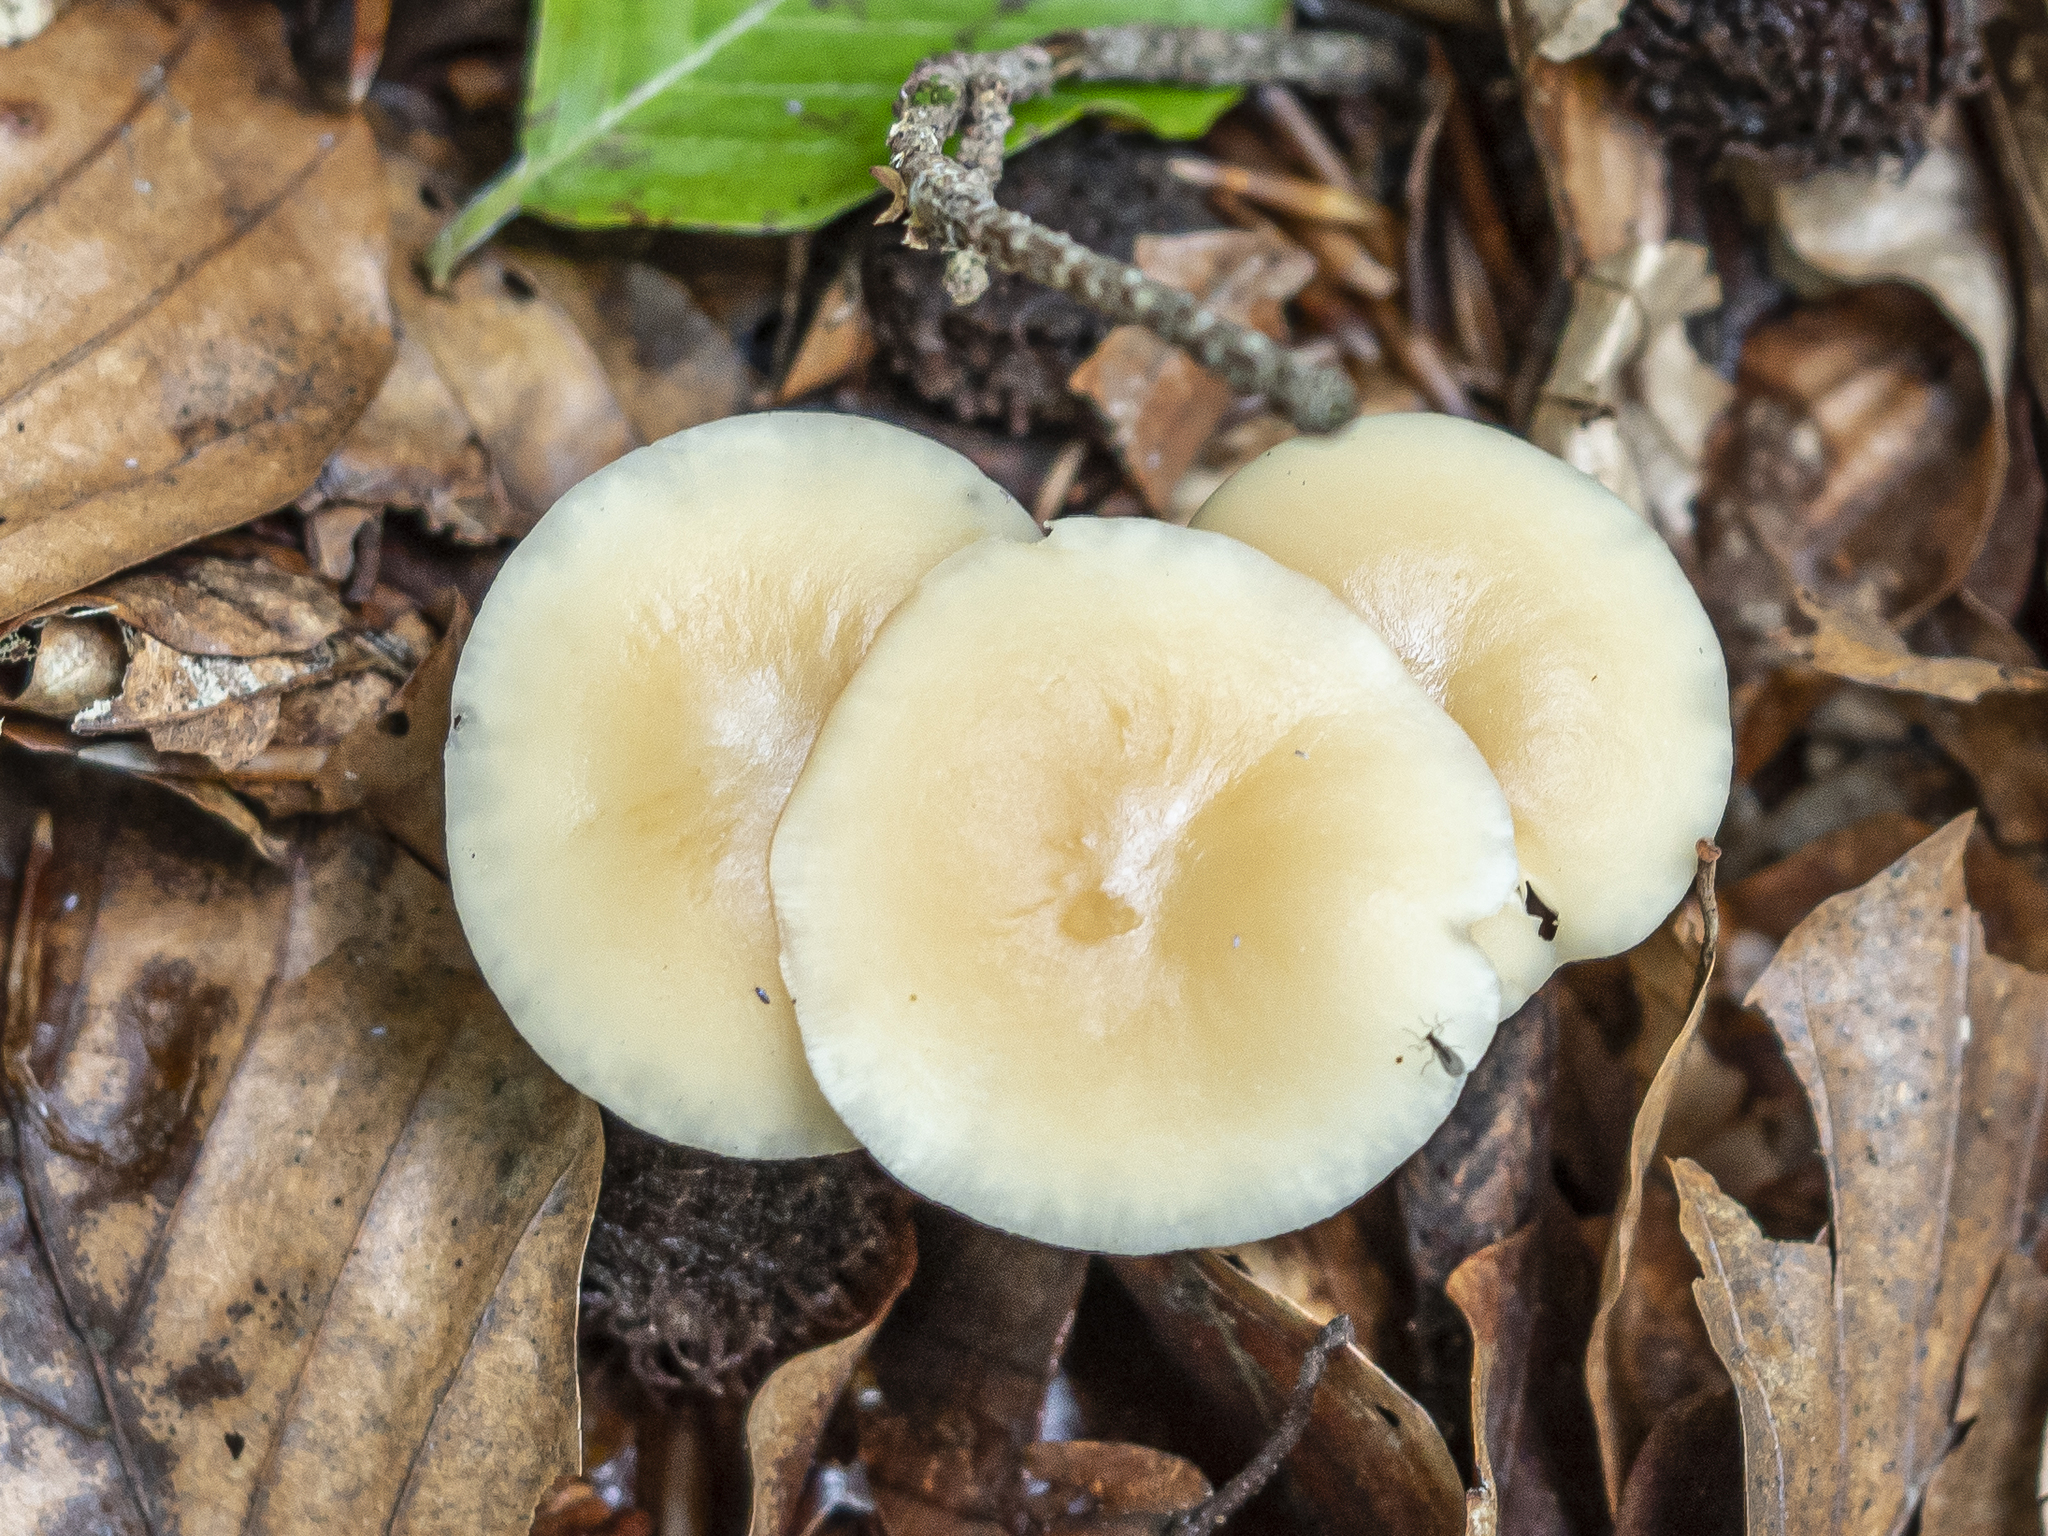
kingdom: Fungi
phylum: Basidiomycota
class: Agaricomycetes
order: Agaricales
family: Omphalotaceae
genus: Gymnopus
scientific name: Gymnopus aquosus
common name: Watery toughshank
